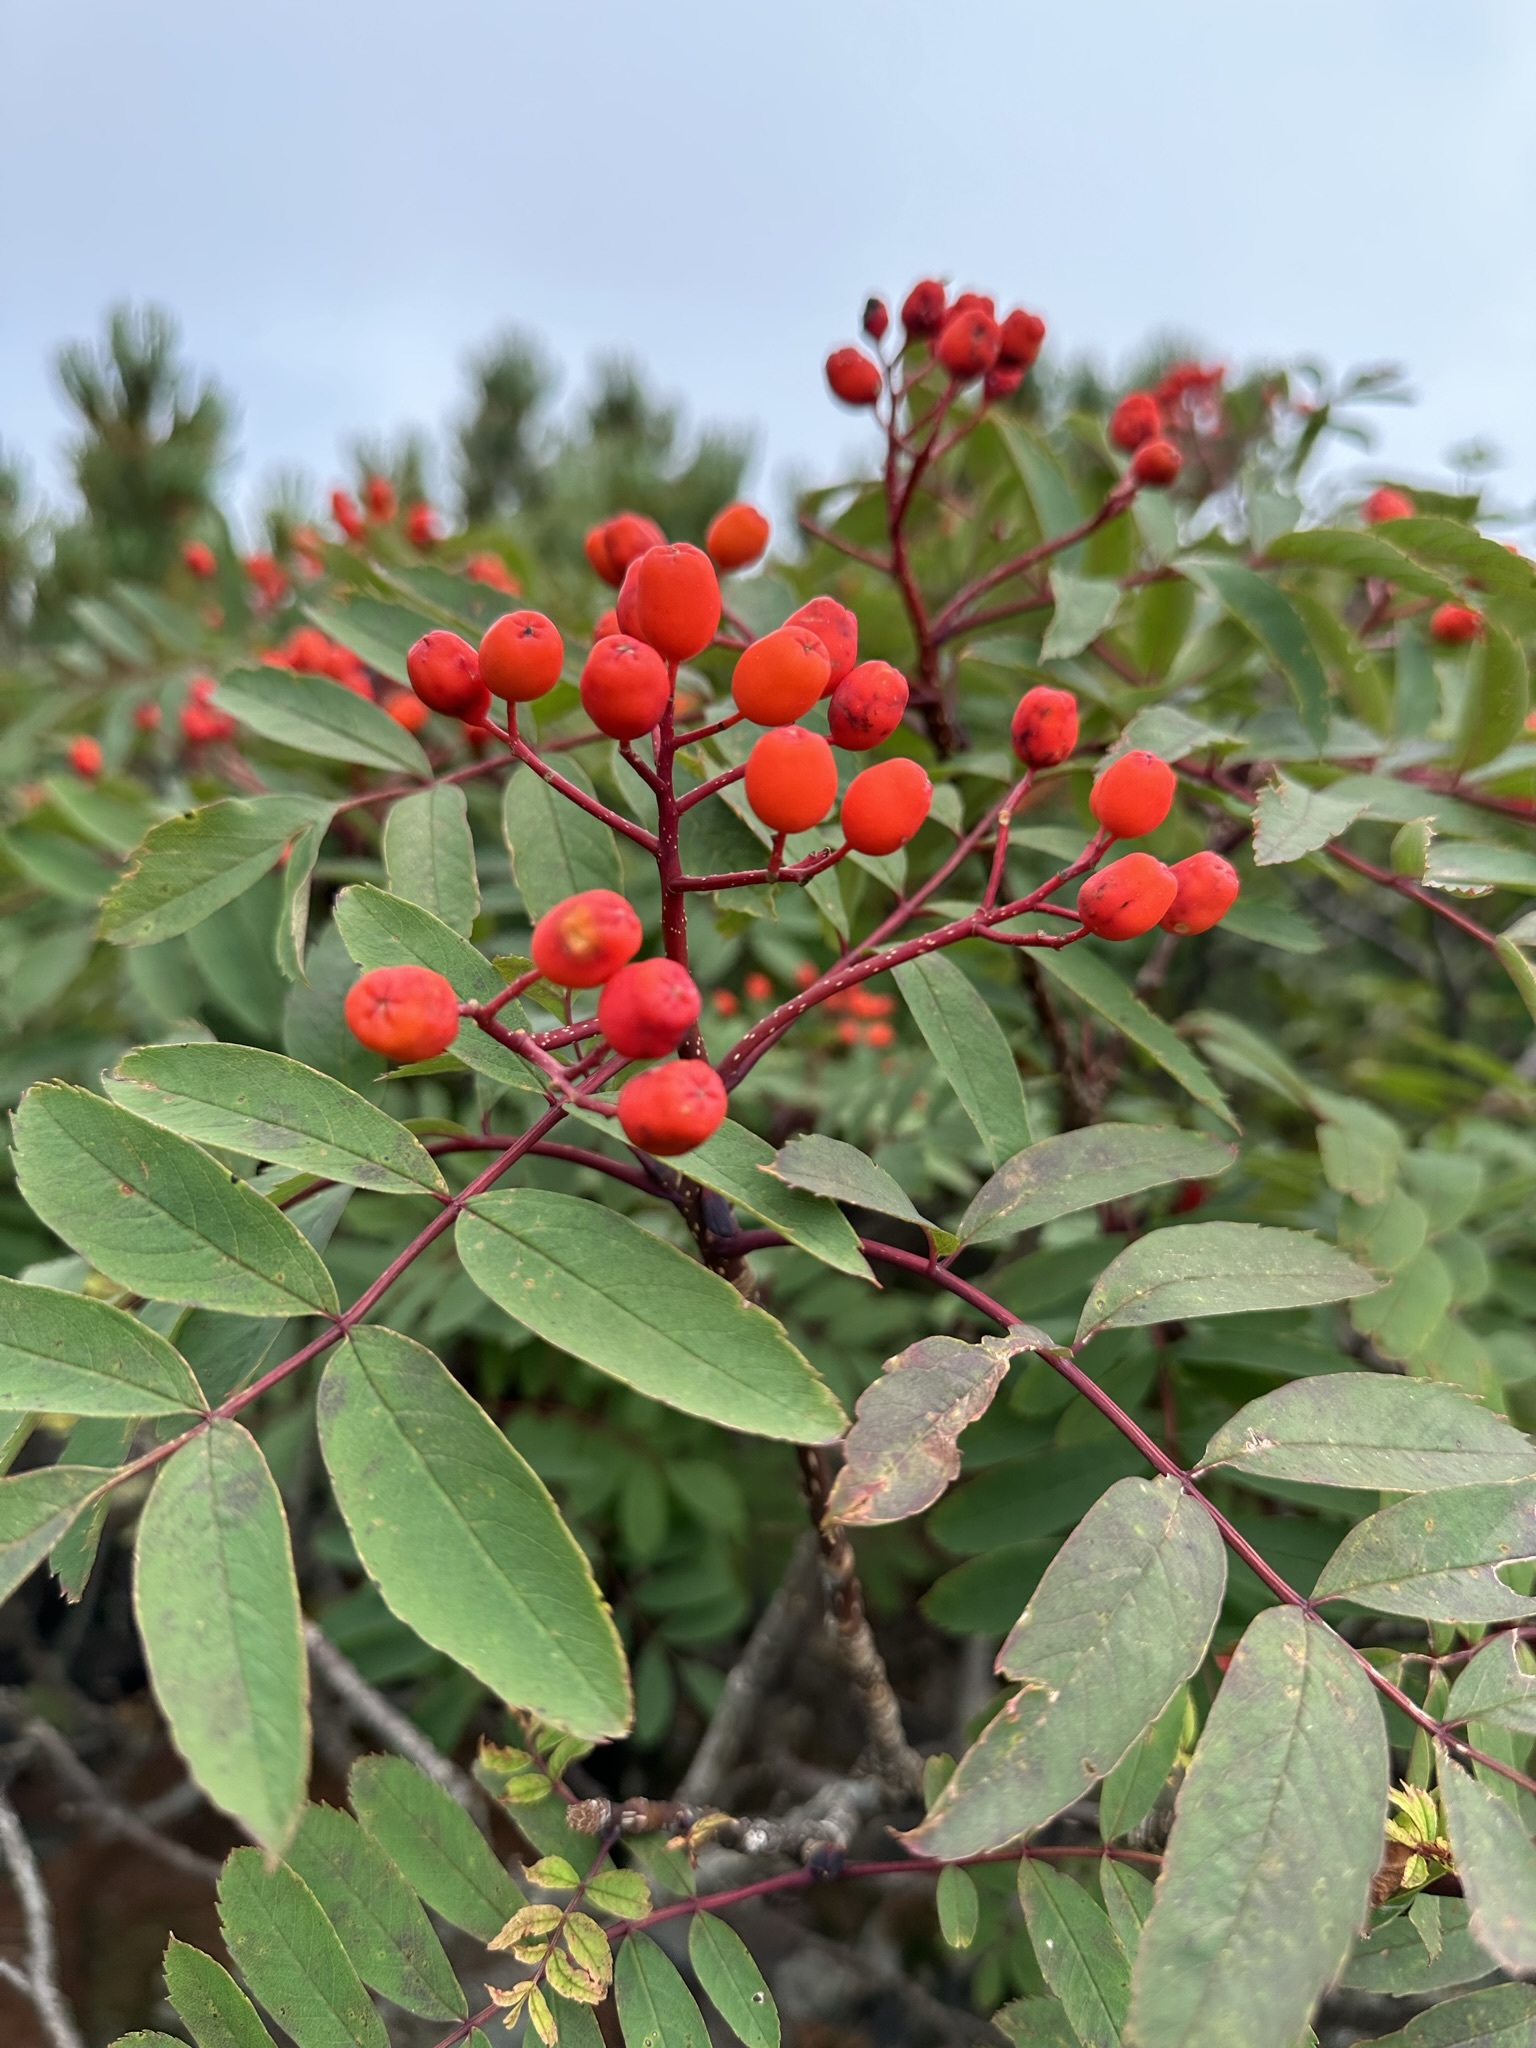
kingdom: Plantae
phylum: Tracheophyta
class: Magnoliopsida
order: Rosales
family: Rosaceae
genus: Sorbus
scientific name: Sorbus matsumurana
